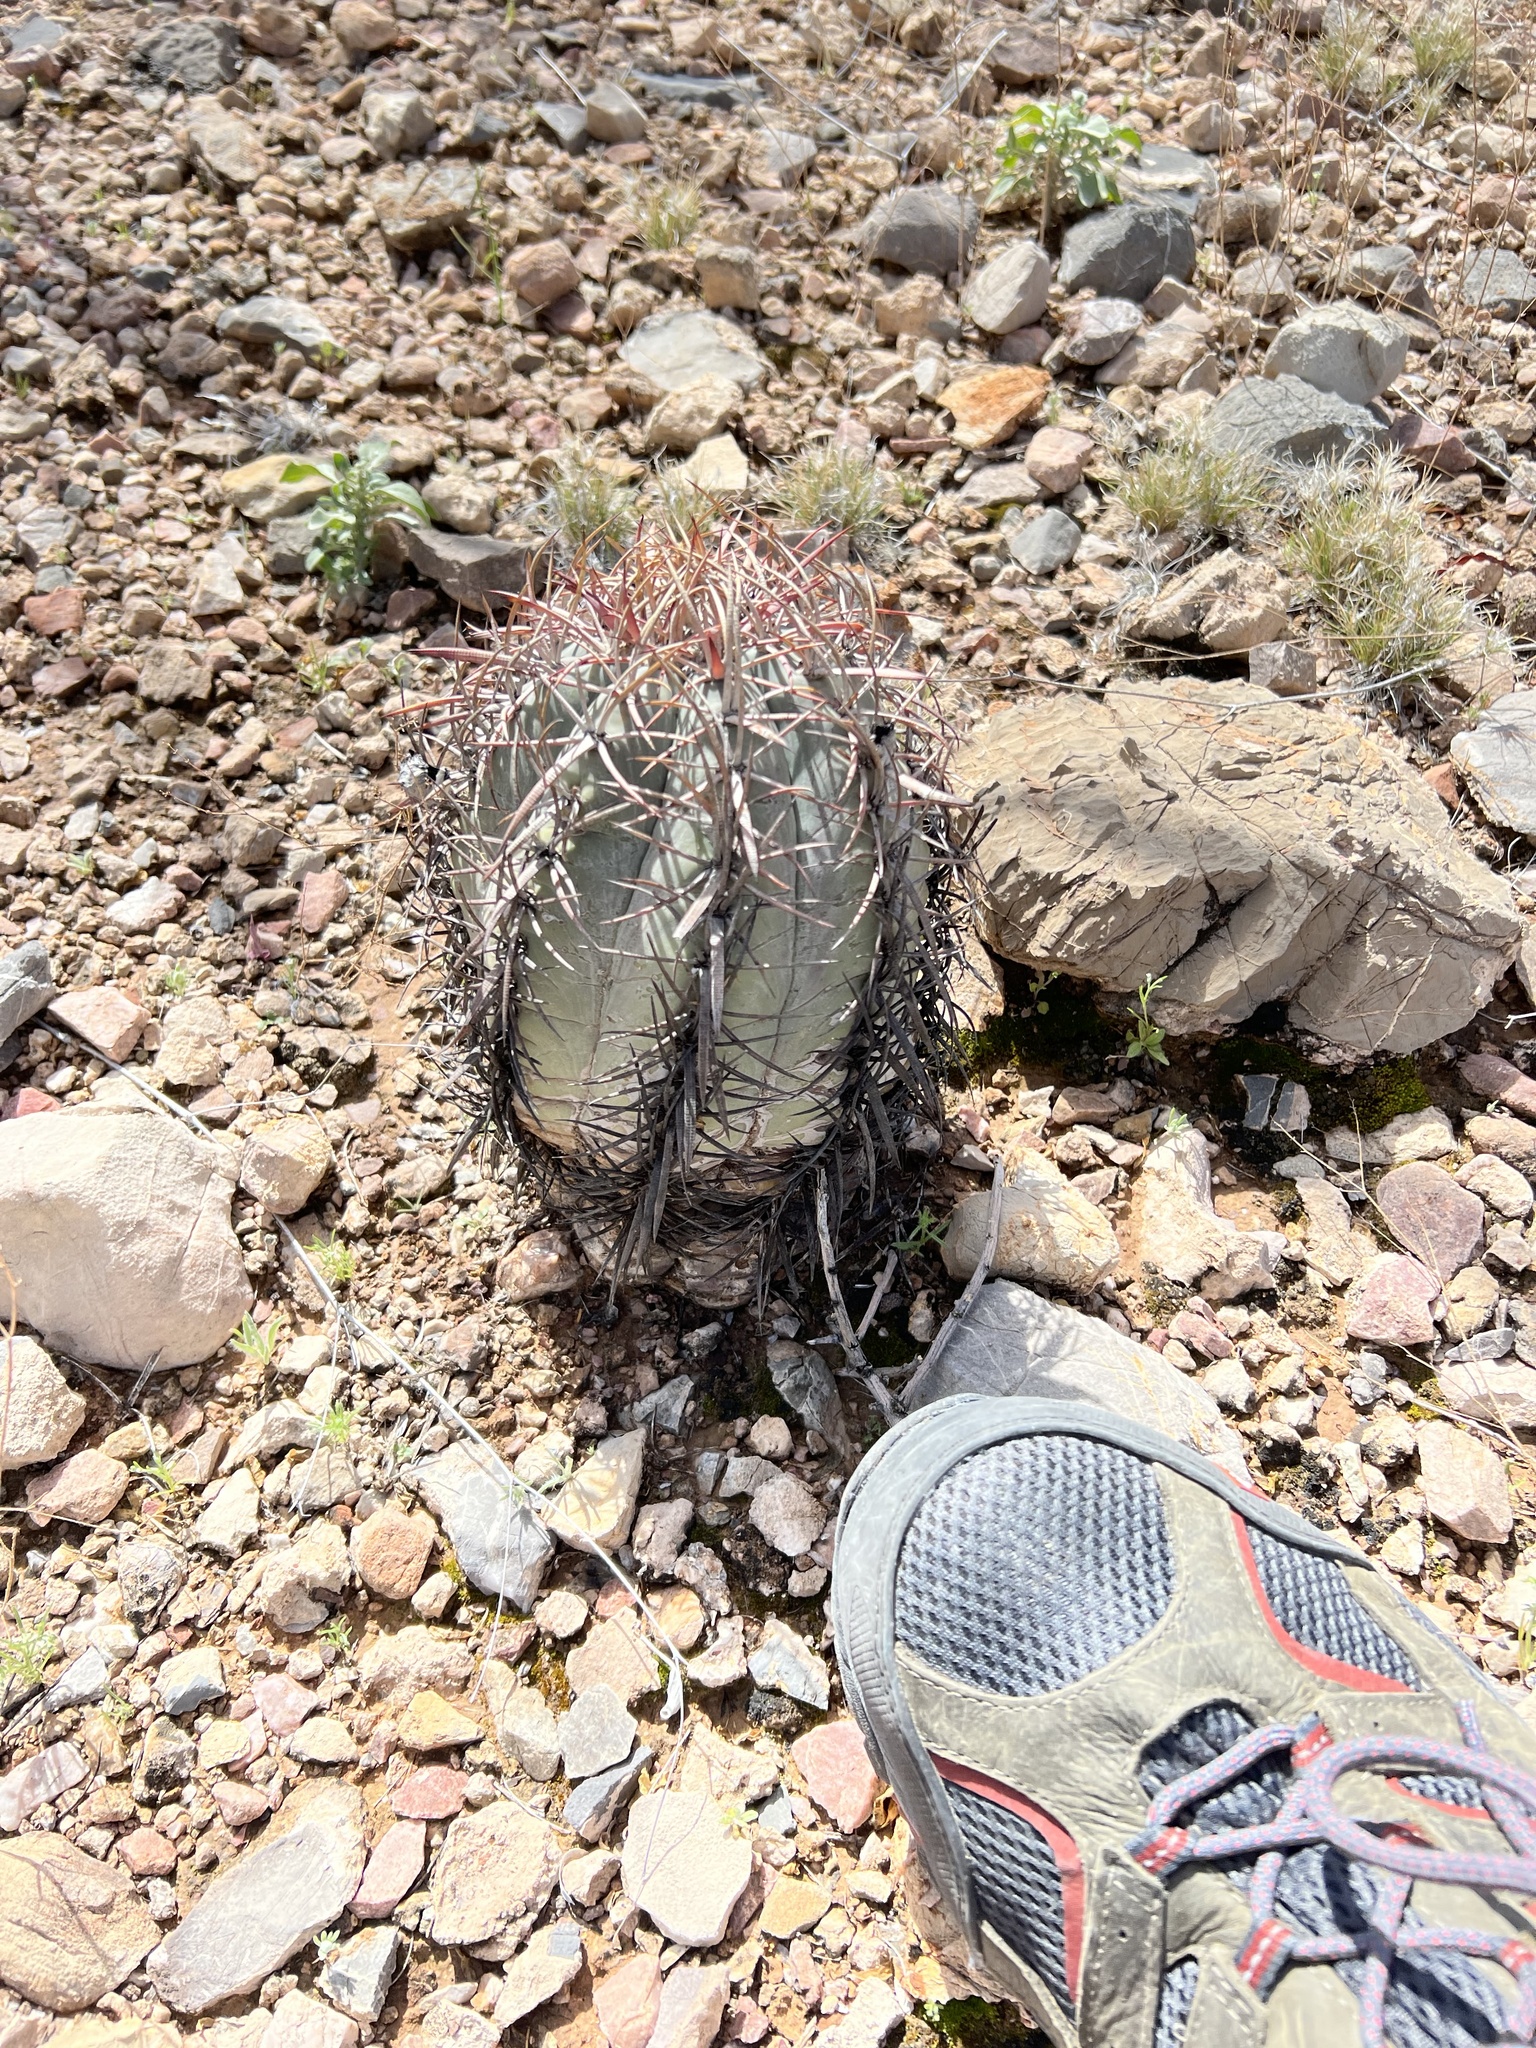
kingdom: Plantae
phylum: Tracheophyta
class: Magnoliopsida
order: Caryophyllales
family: Cactaceae
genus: Echinocactus
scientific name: Echinocactus horizonthalonius
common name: Devilshead
